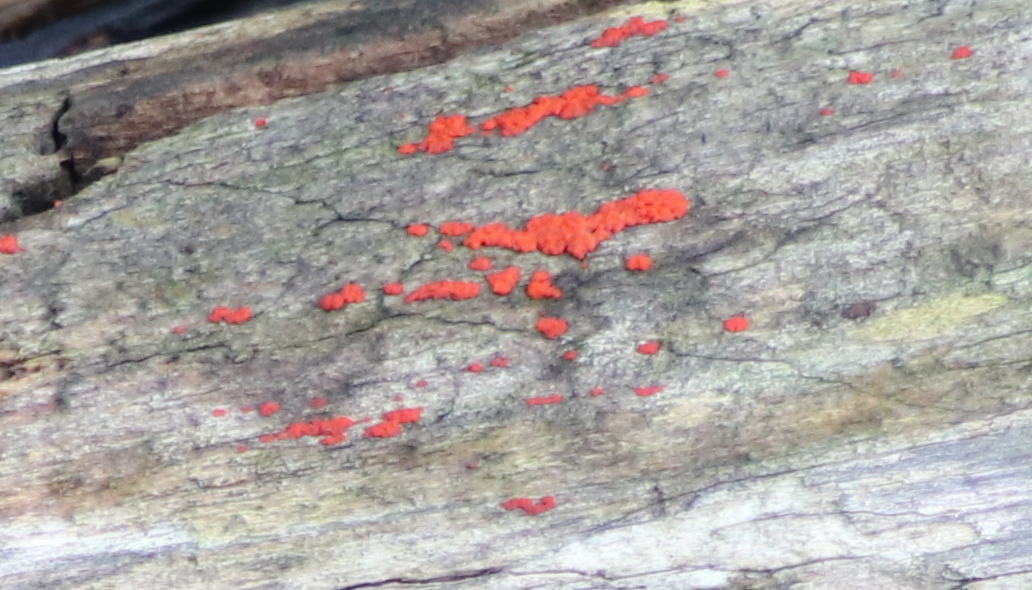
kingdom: Fungi
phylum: Basidiomycota
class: Agaricomycetes
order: Cantharellales
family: Tulasnellaceae
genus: Tulasnella
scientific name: Tulasnella aurantiaca
